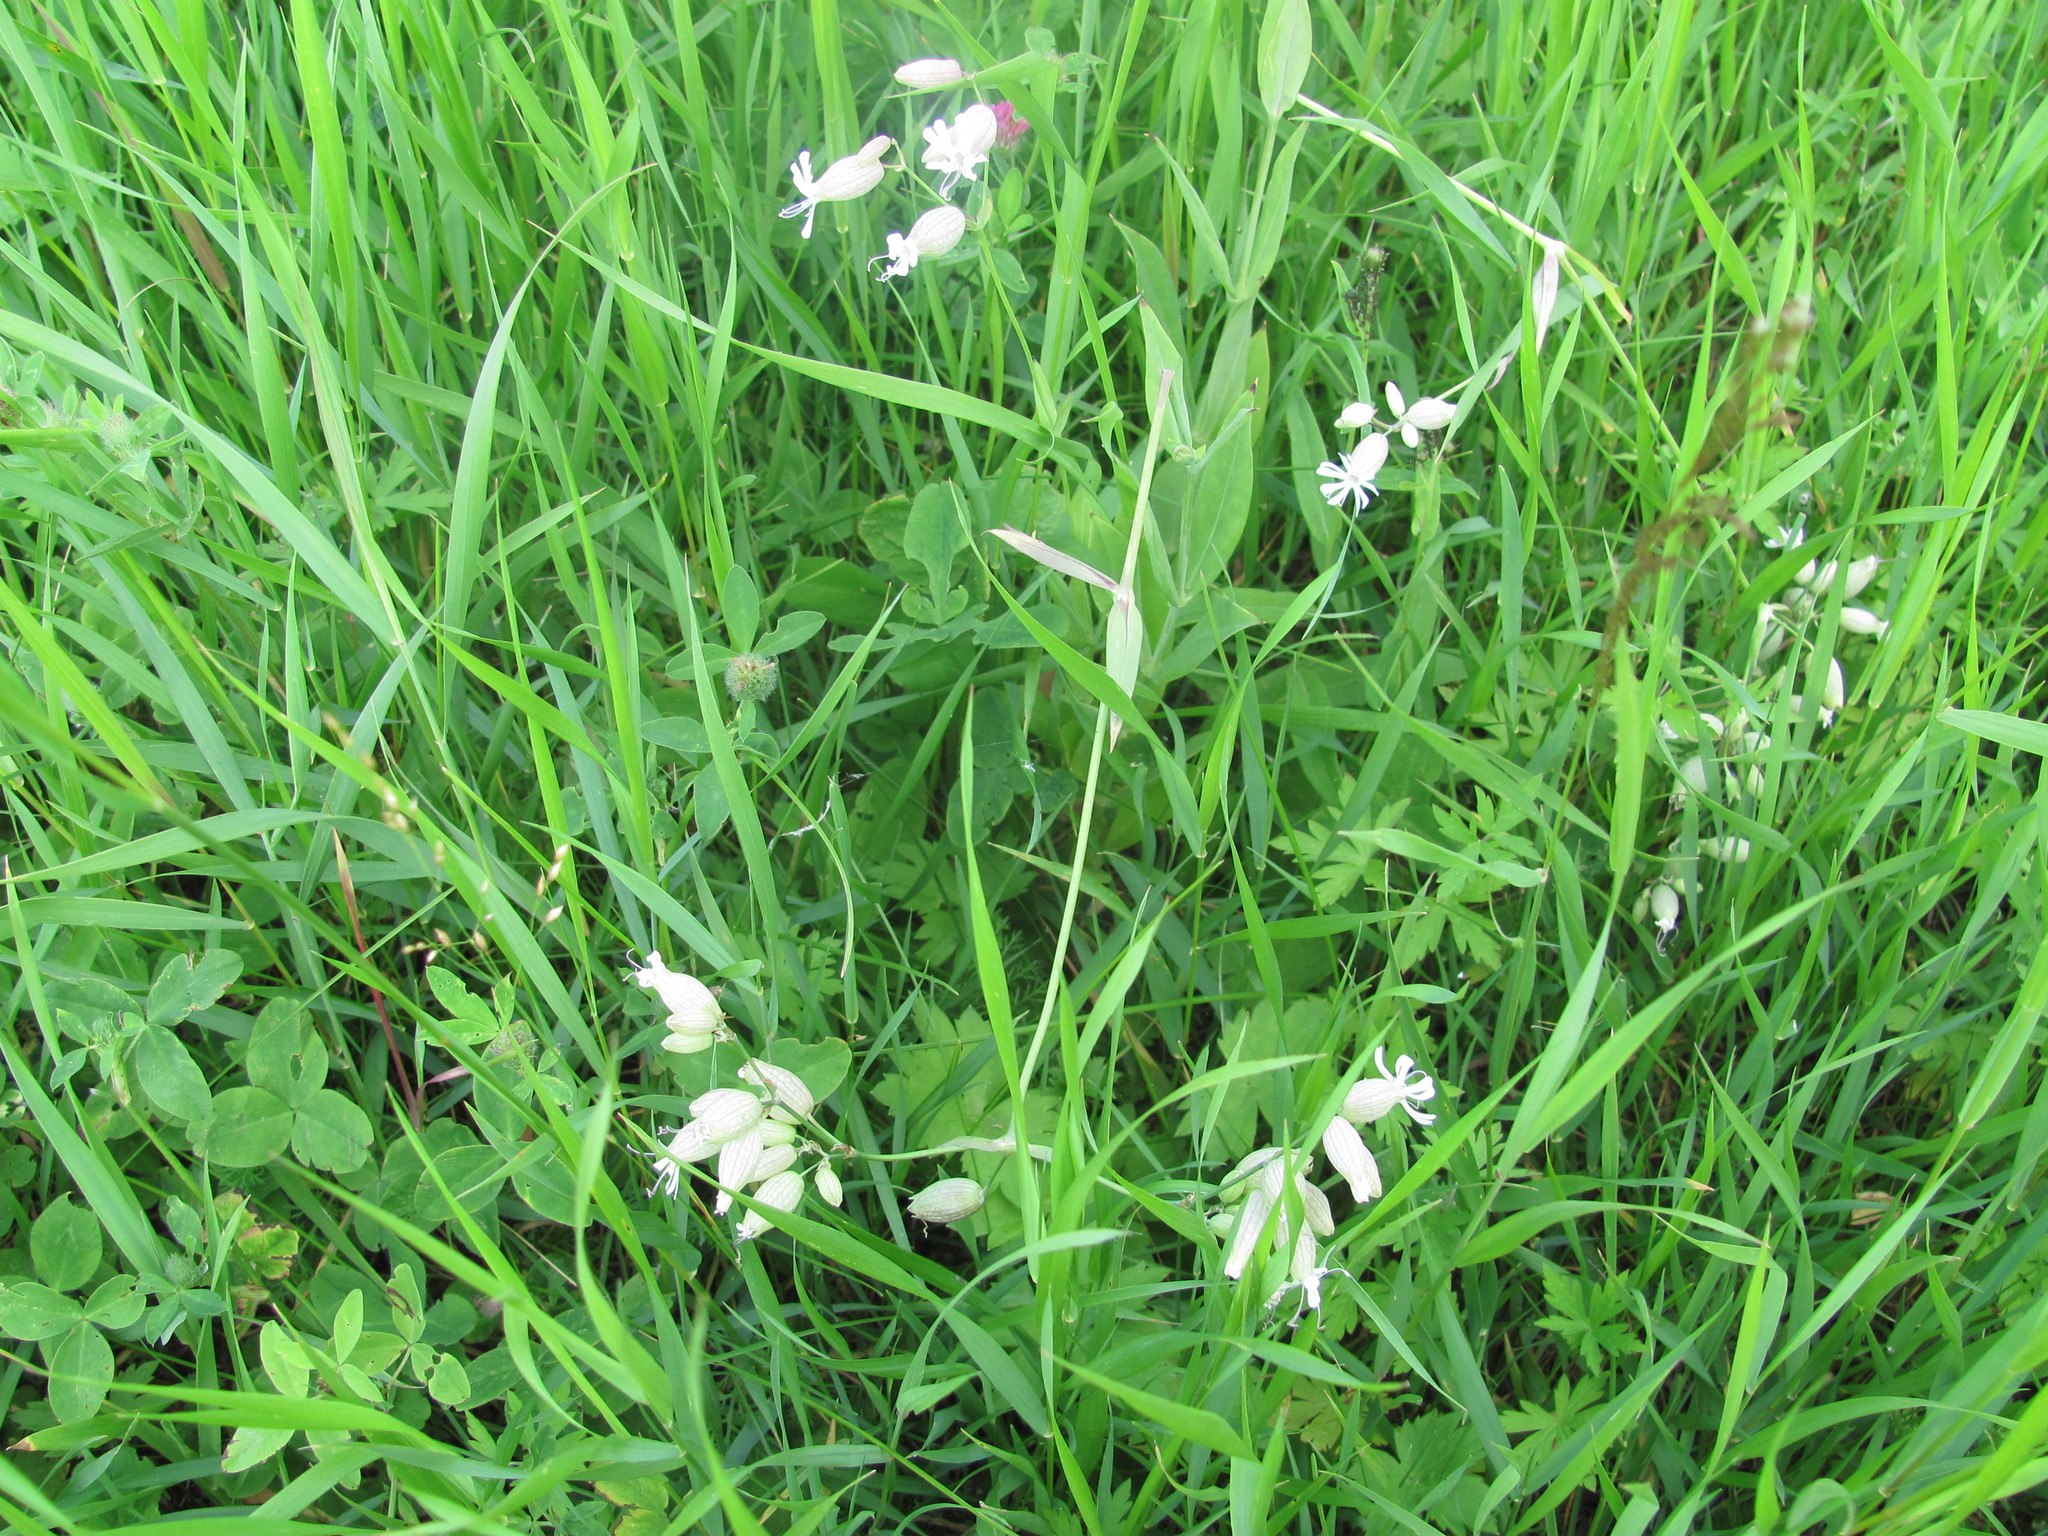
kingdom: Plantae
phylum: Tracheophyta
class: Magnoliopsida
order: Caryophyllales
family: Caryophyllaceae
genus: Silene
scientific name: Silene vulgaris
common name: Bladder campion
